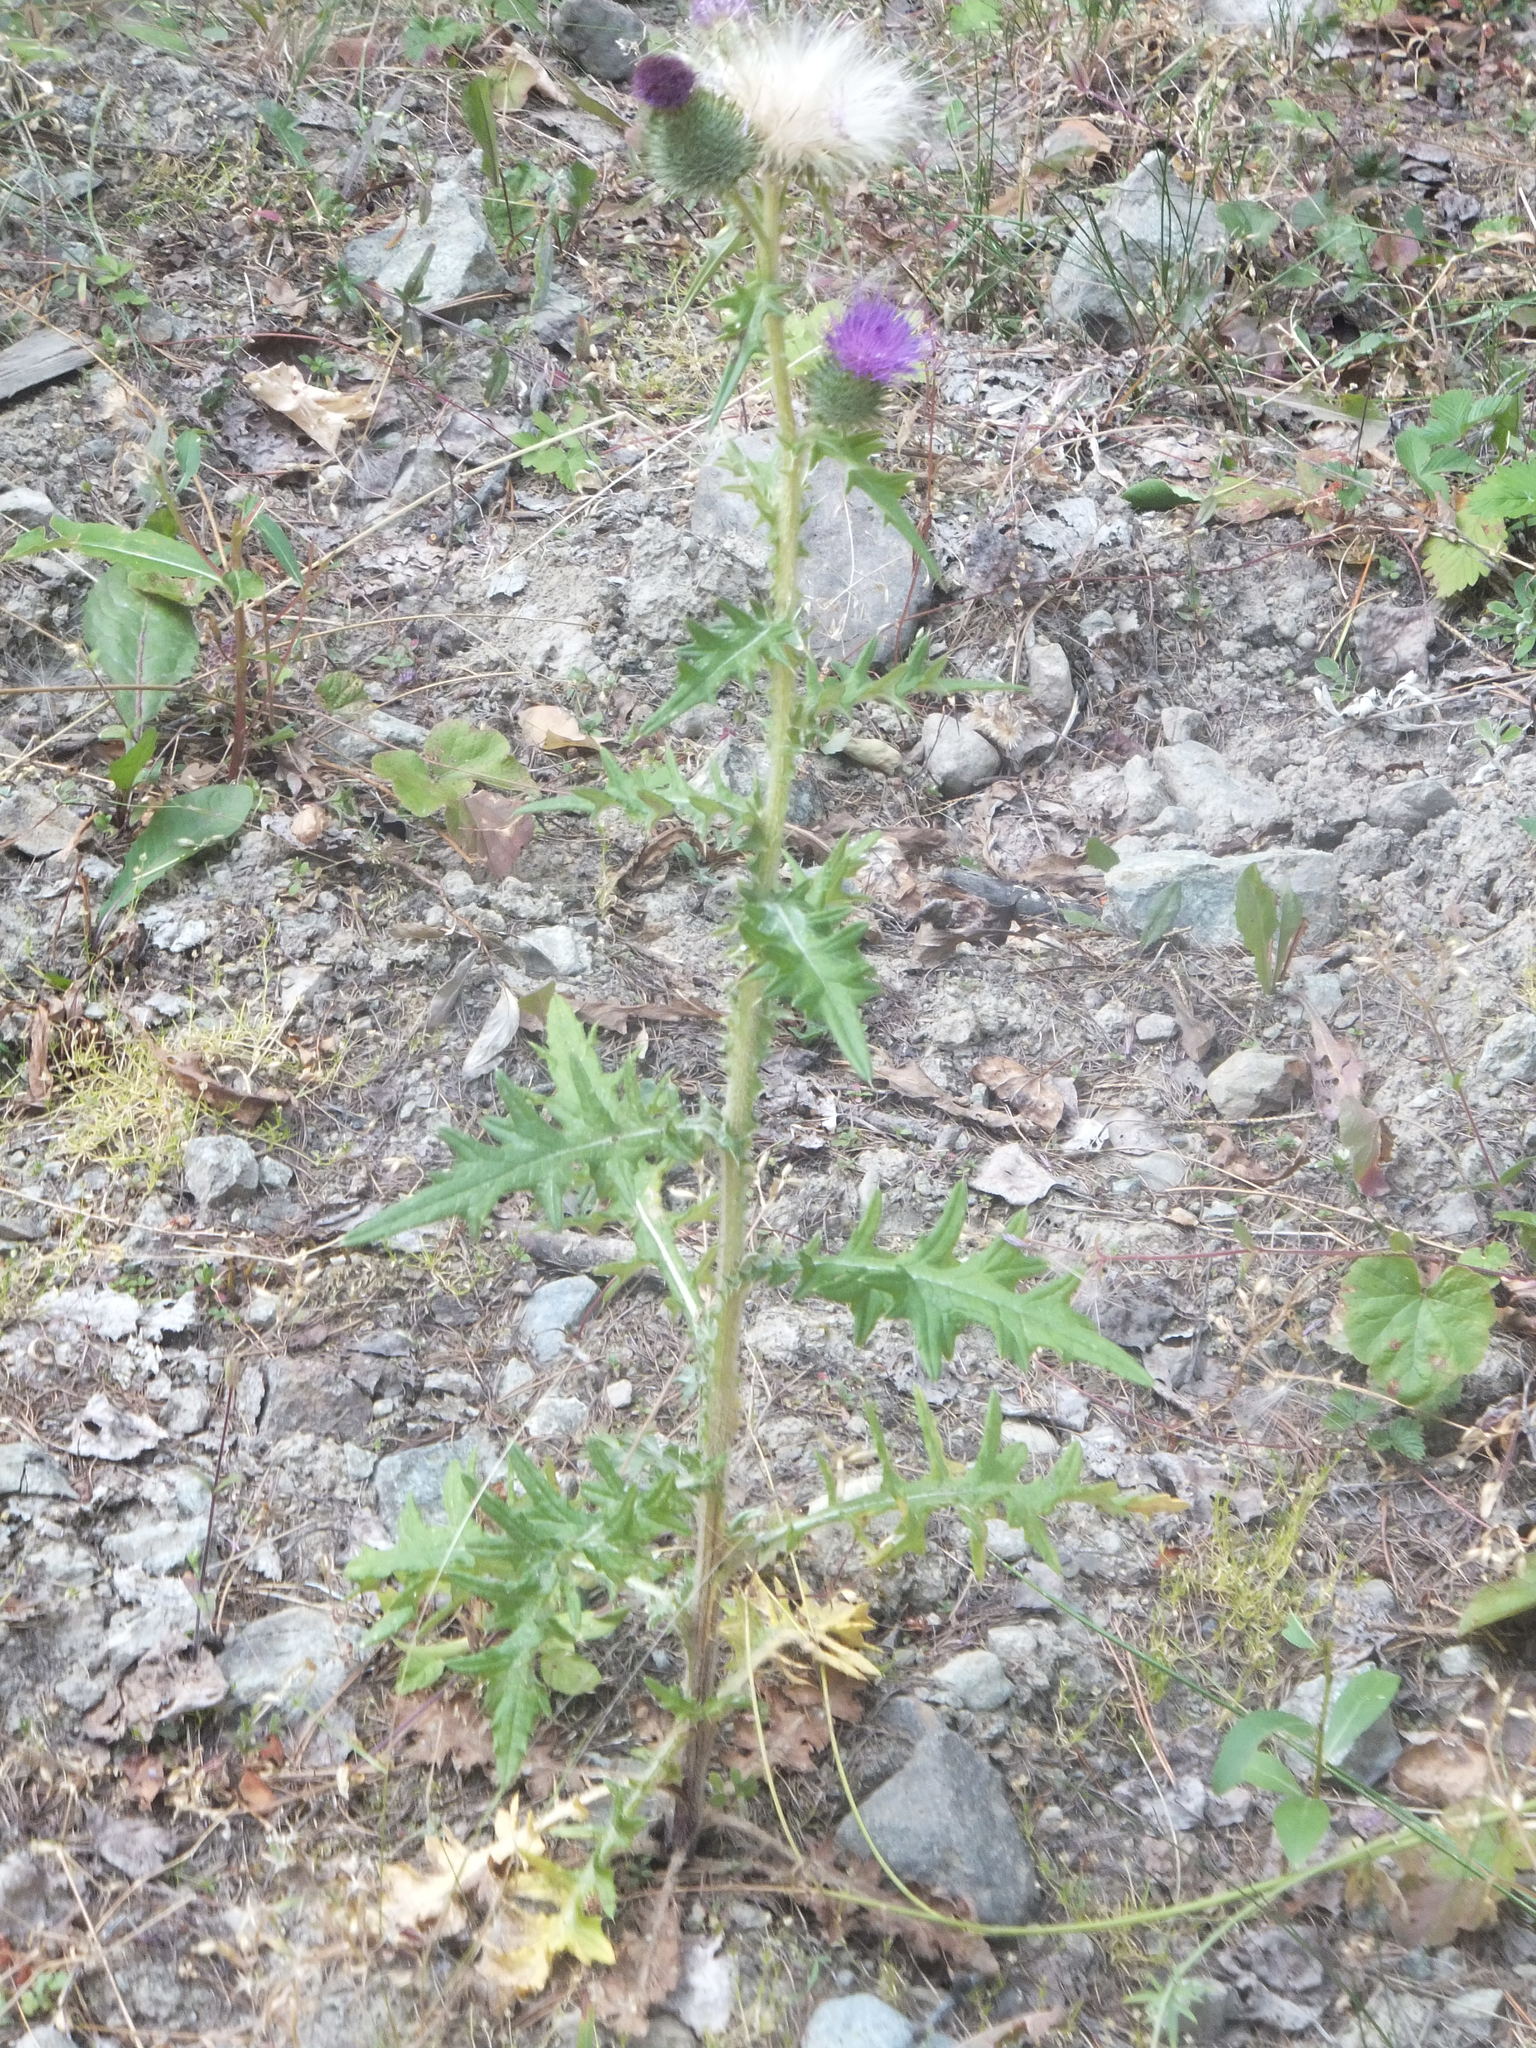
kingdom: Plantae
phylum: Tracheophyta
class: Magnoliopsida
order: Asterales
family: Asteraceae
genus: Cirsium
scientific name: Cirsium vulgare
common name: Bull thistle
